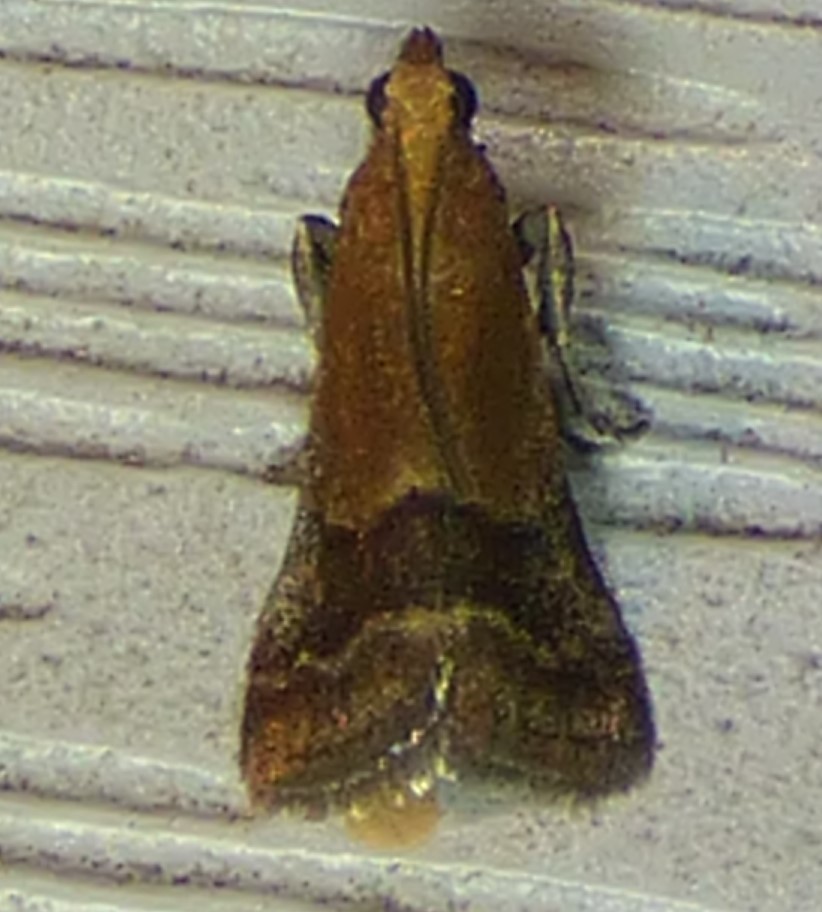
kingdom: Animalia
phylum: Arthropoda
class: Insecta
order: Lepidoptera
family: Pyralidae
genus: Eulogia
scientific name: Eulogia ochrifrontella
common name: Broad-banded eulogia moth
